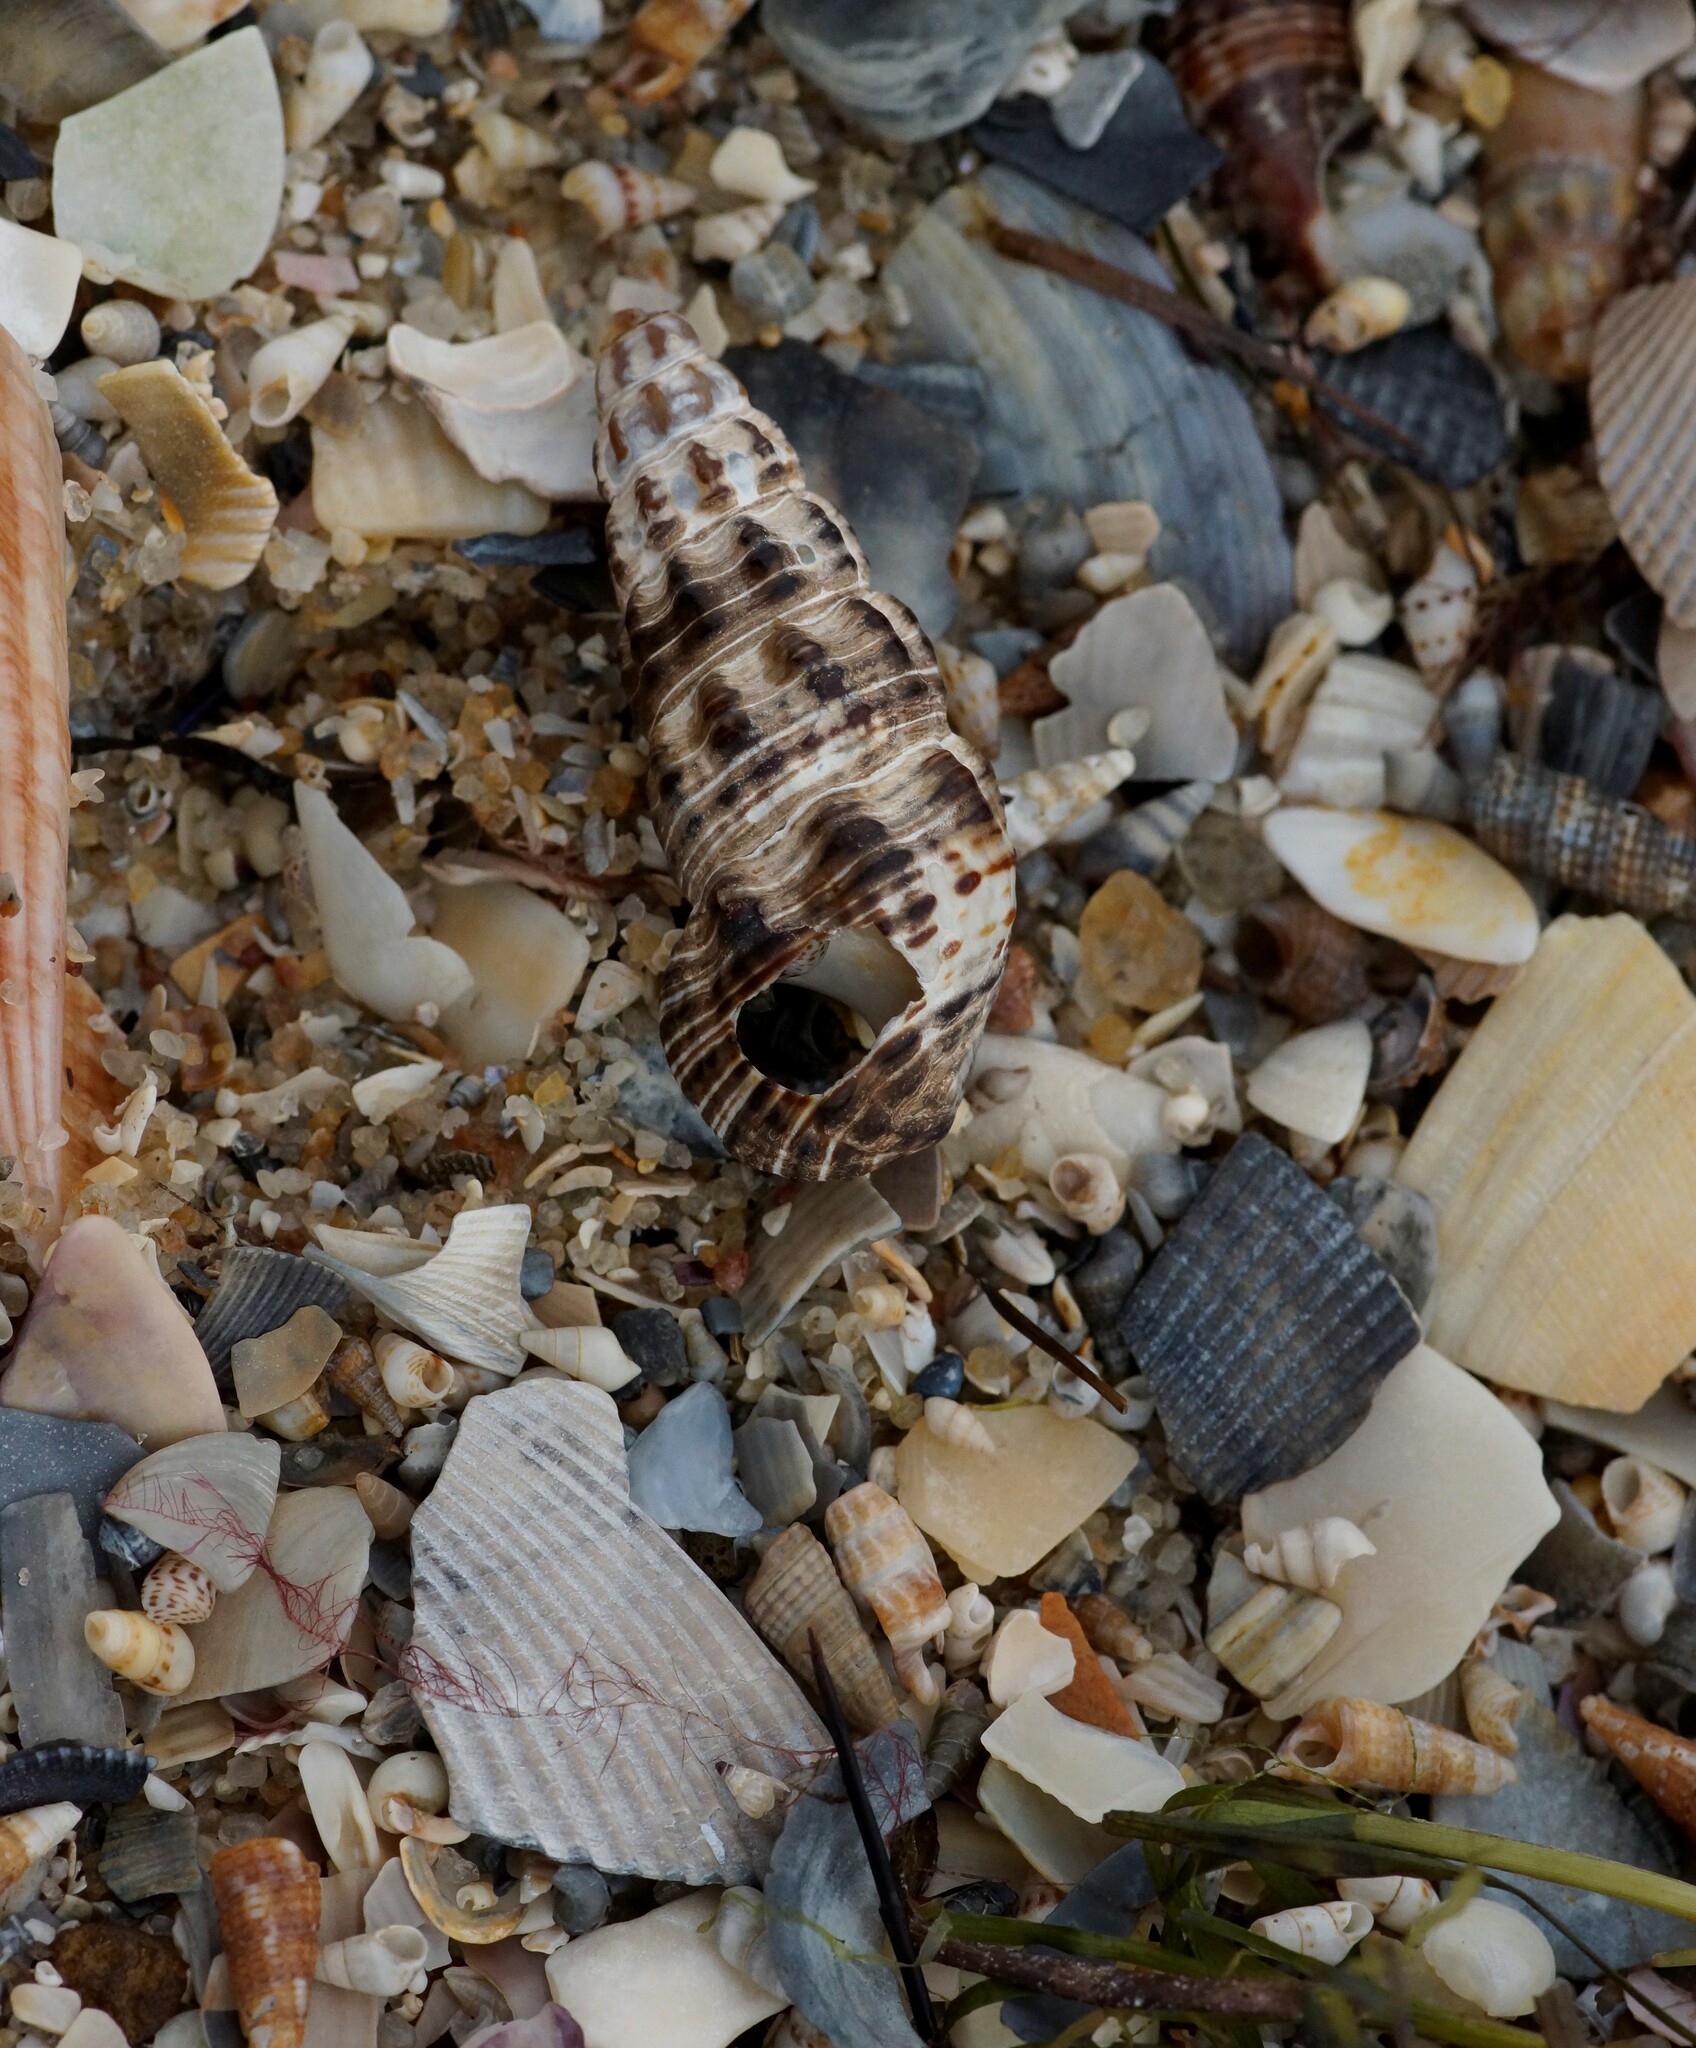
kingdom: Animalia
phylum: Mollusca
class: Gastropoda
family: Batillariidae
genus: Batillaria
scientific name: Batillaria australis
